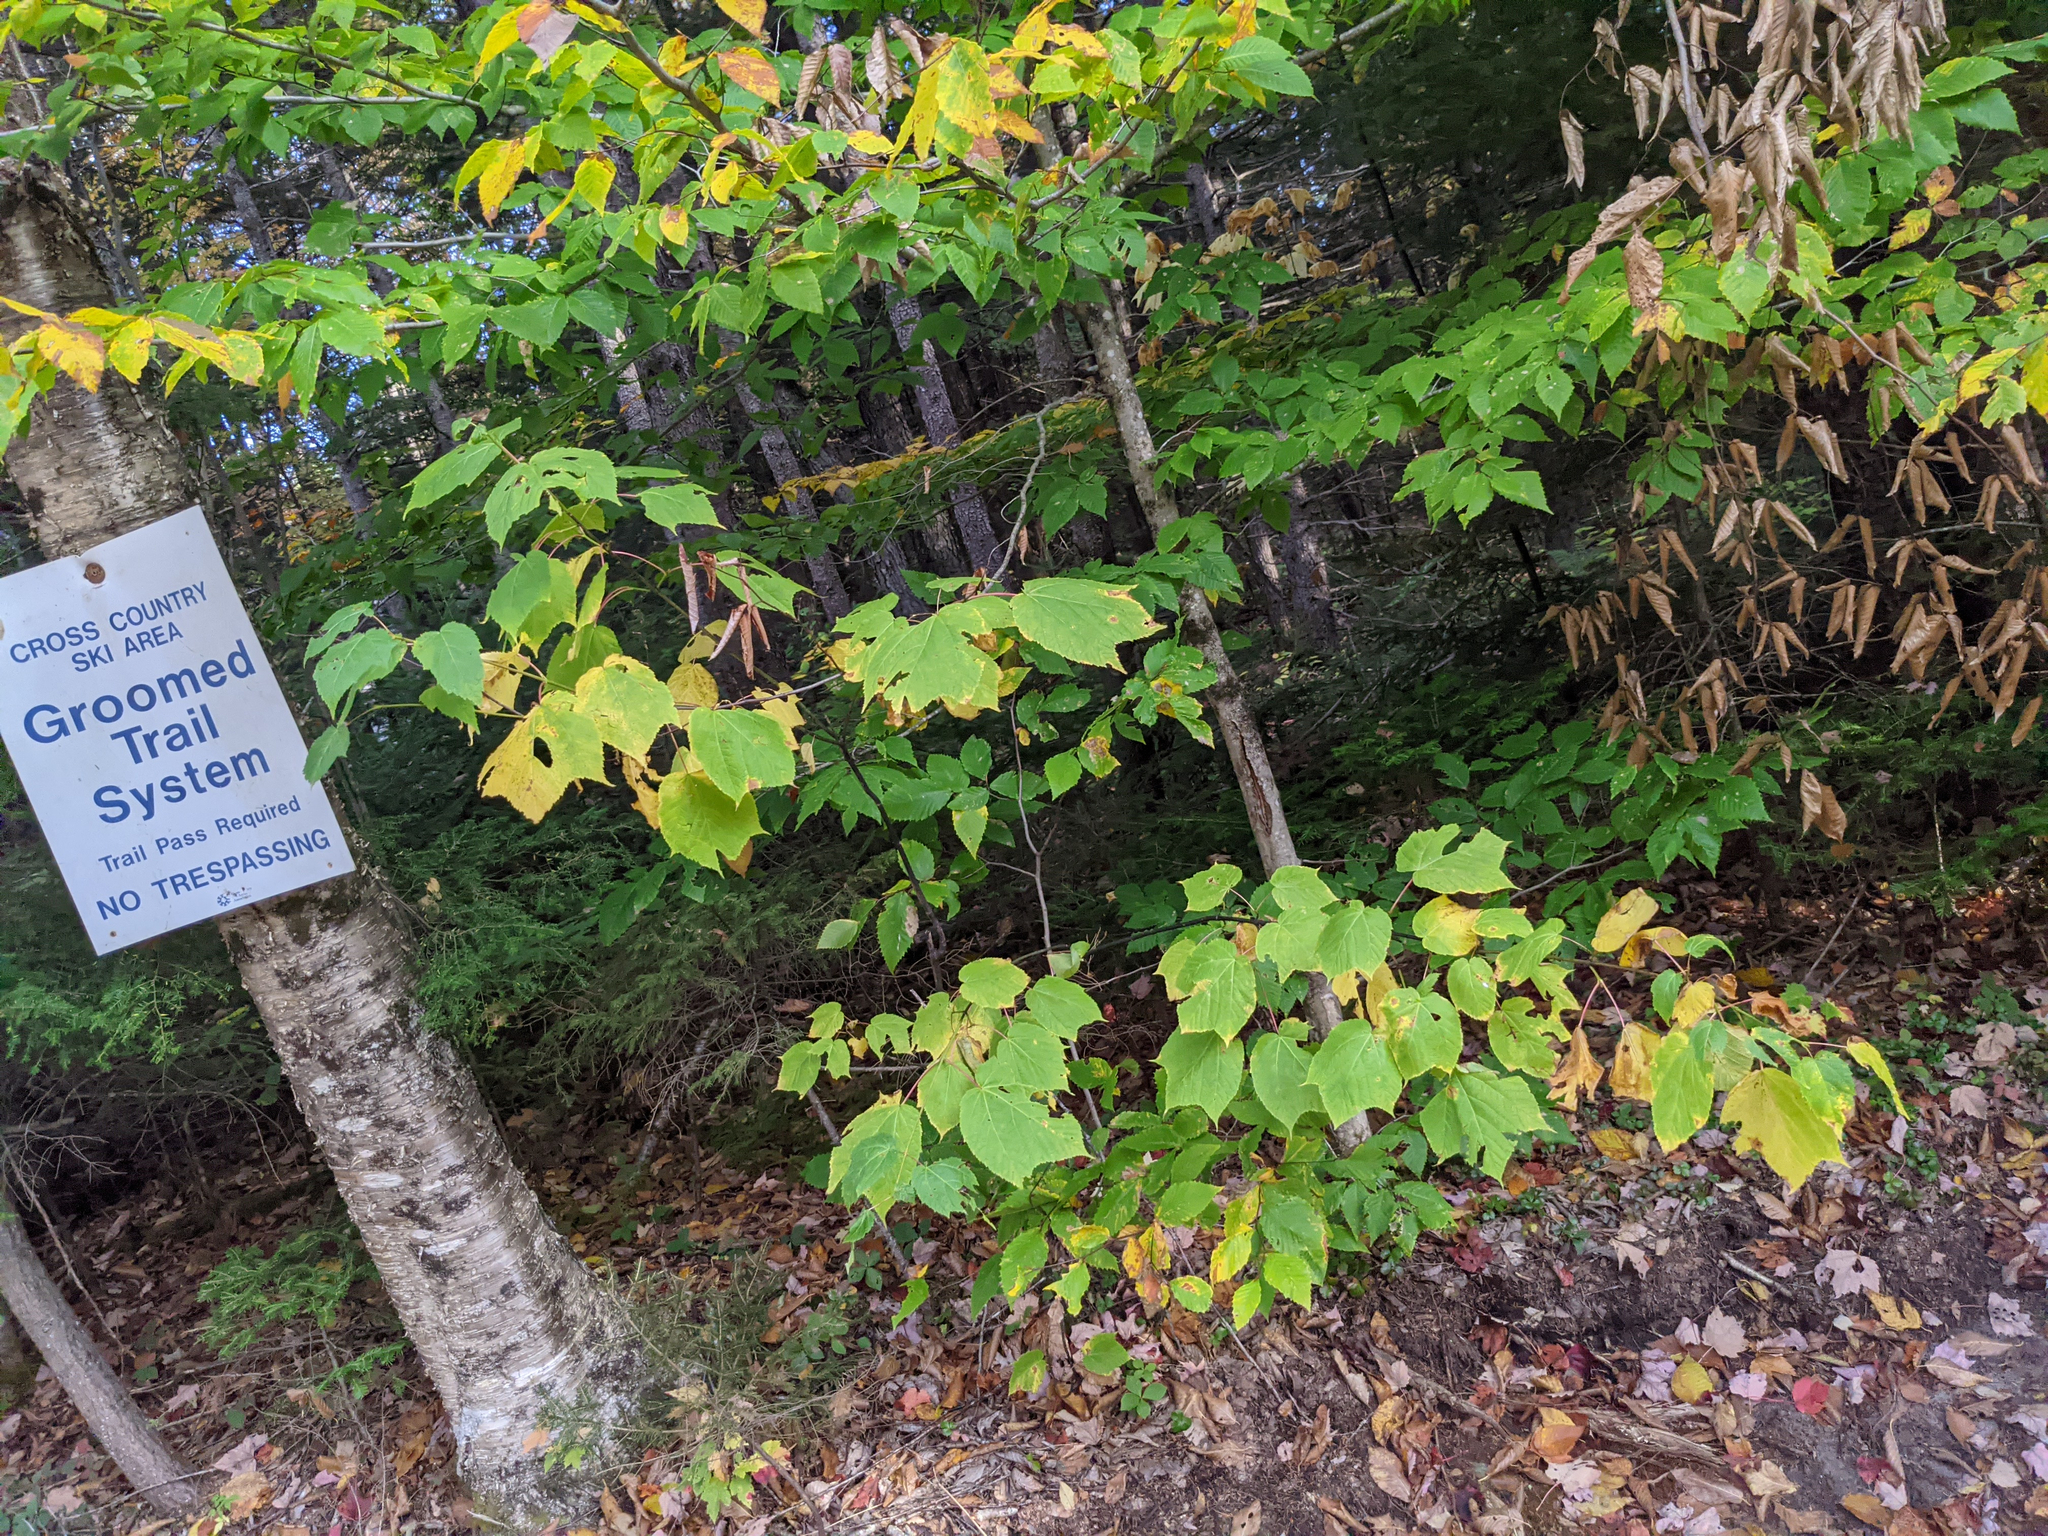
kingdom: Plantae
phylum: Tracheophyta
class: Magnoliopsida
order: Sapindales
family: Sapindaceae
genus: Acer
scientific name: Acer pensylvanicum
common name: Moosewood
